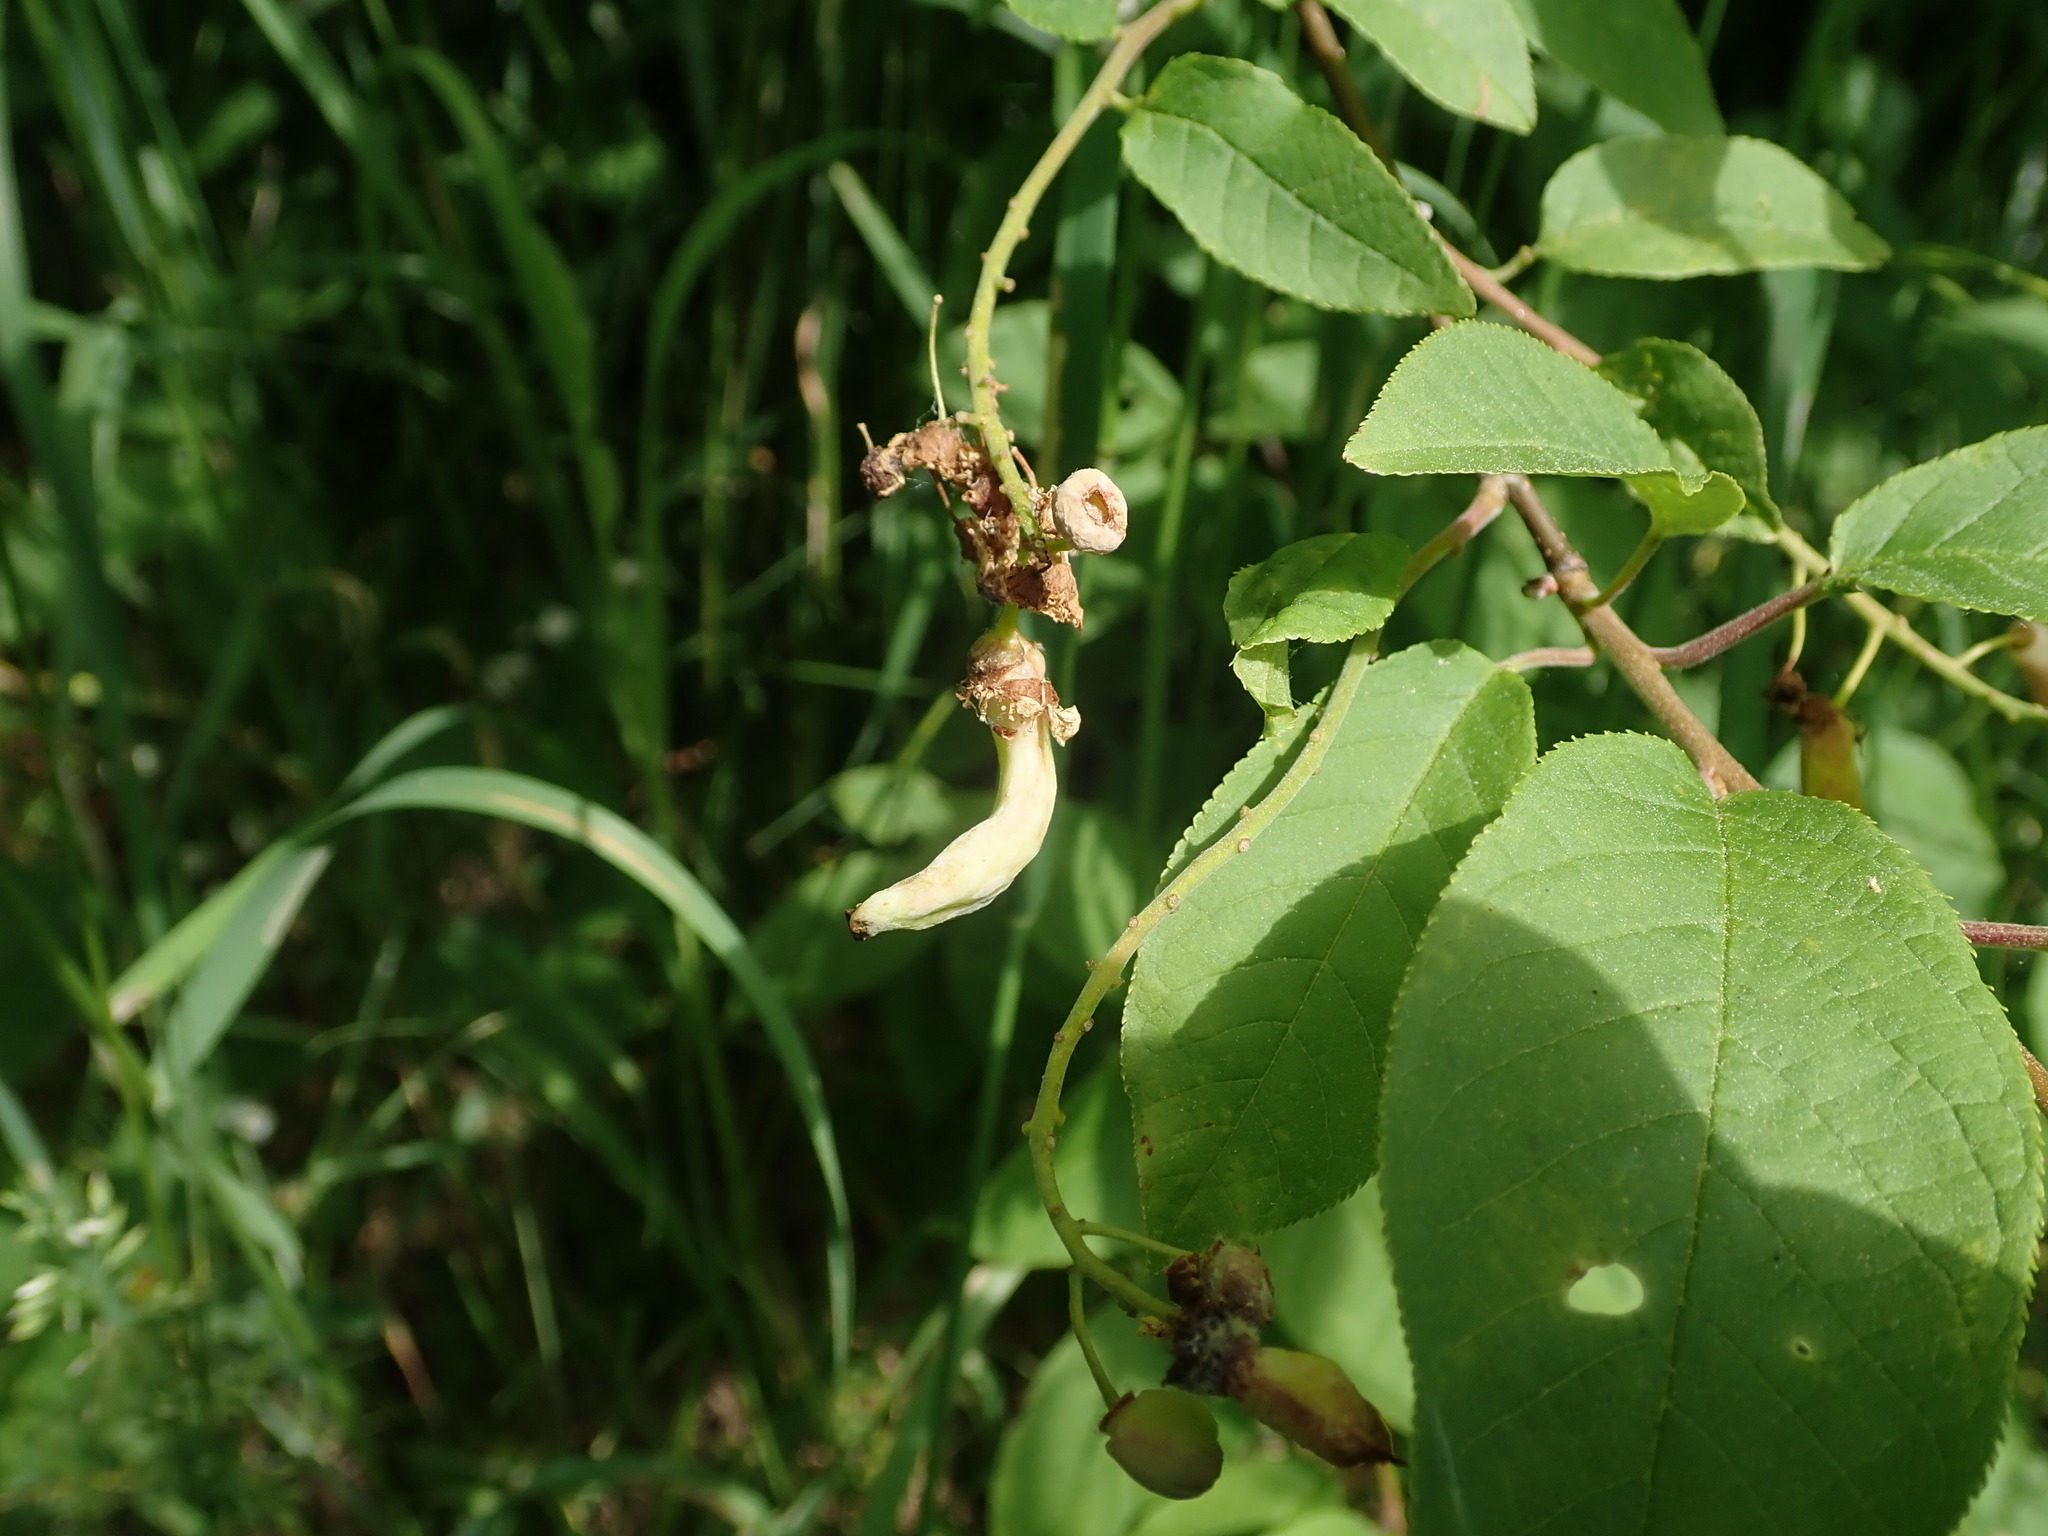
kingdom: Fungi
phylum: Ascomycota
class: Taphrinomycetes
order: Taphrinales
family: Taphrinaceae
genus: Taphrina
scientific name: Taphrina padi
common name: Bird cherry pocket
